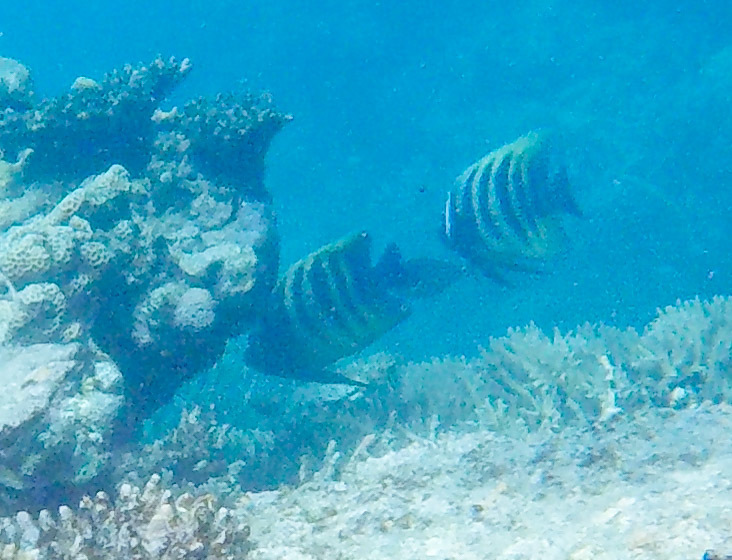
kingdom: Animalia
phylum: Chordata
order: Perciformes
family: Pomacanthidae
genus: Pomacanthus
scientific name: Pomacanthus sexstriatus
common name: Six-banded angelfish
